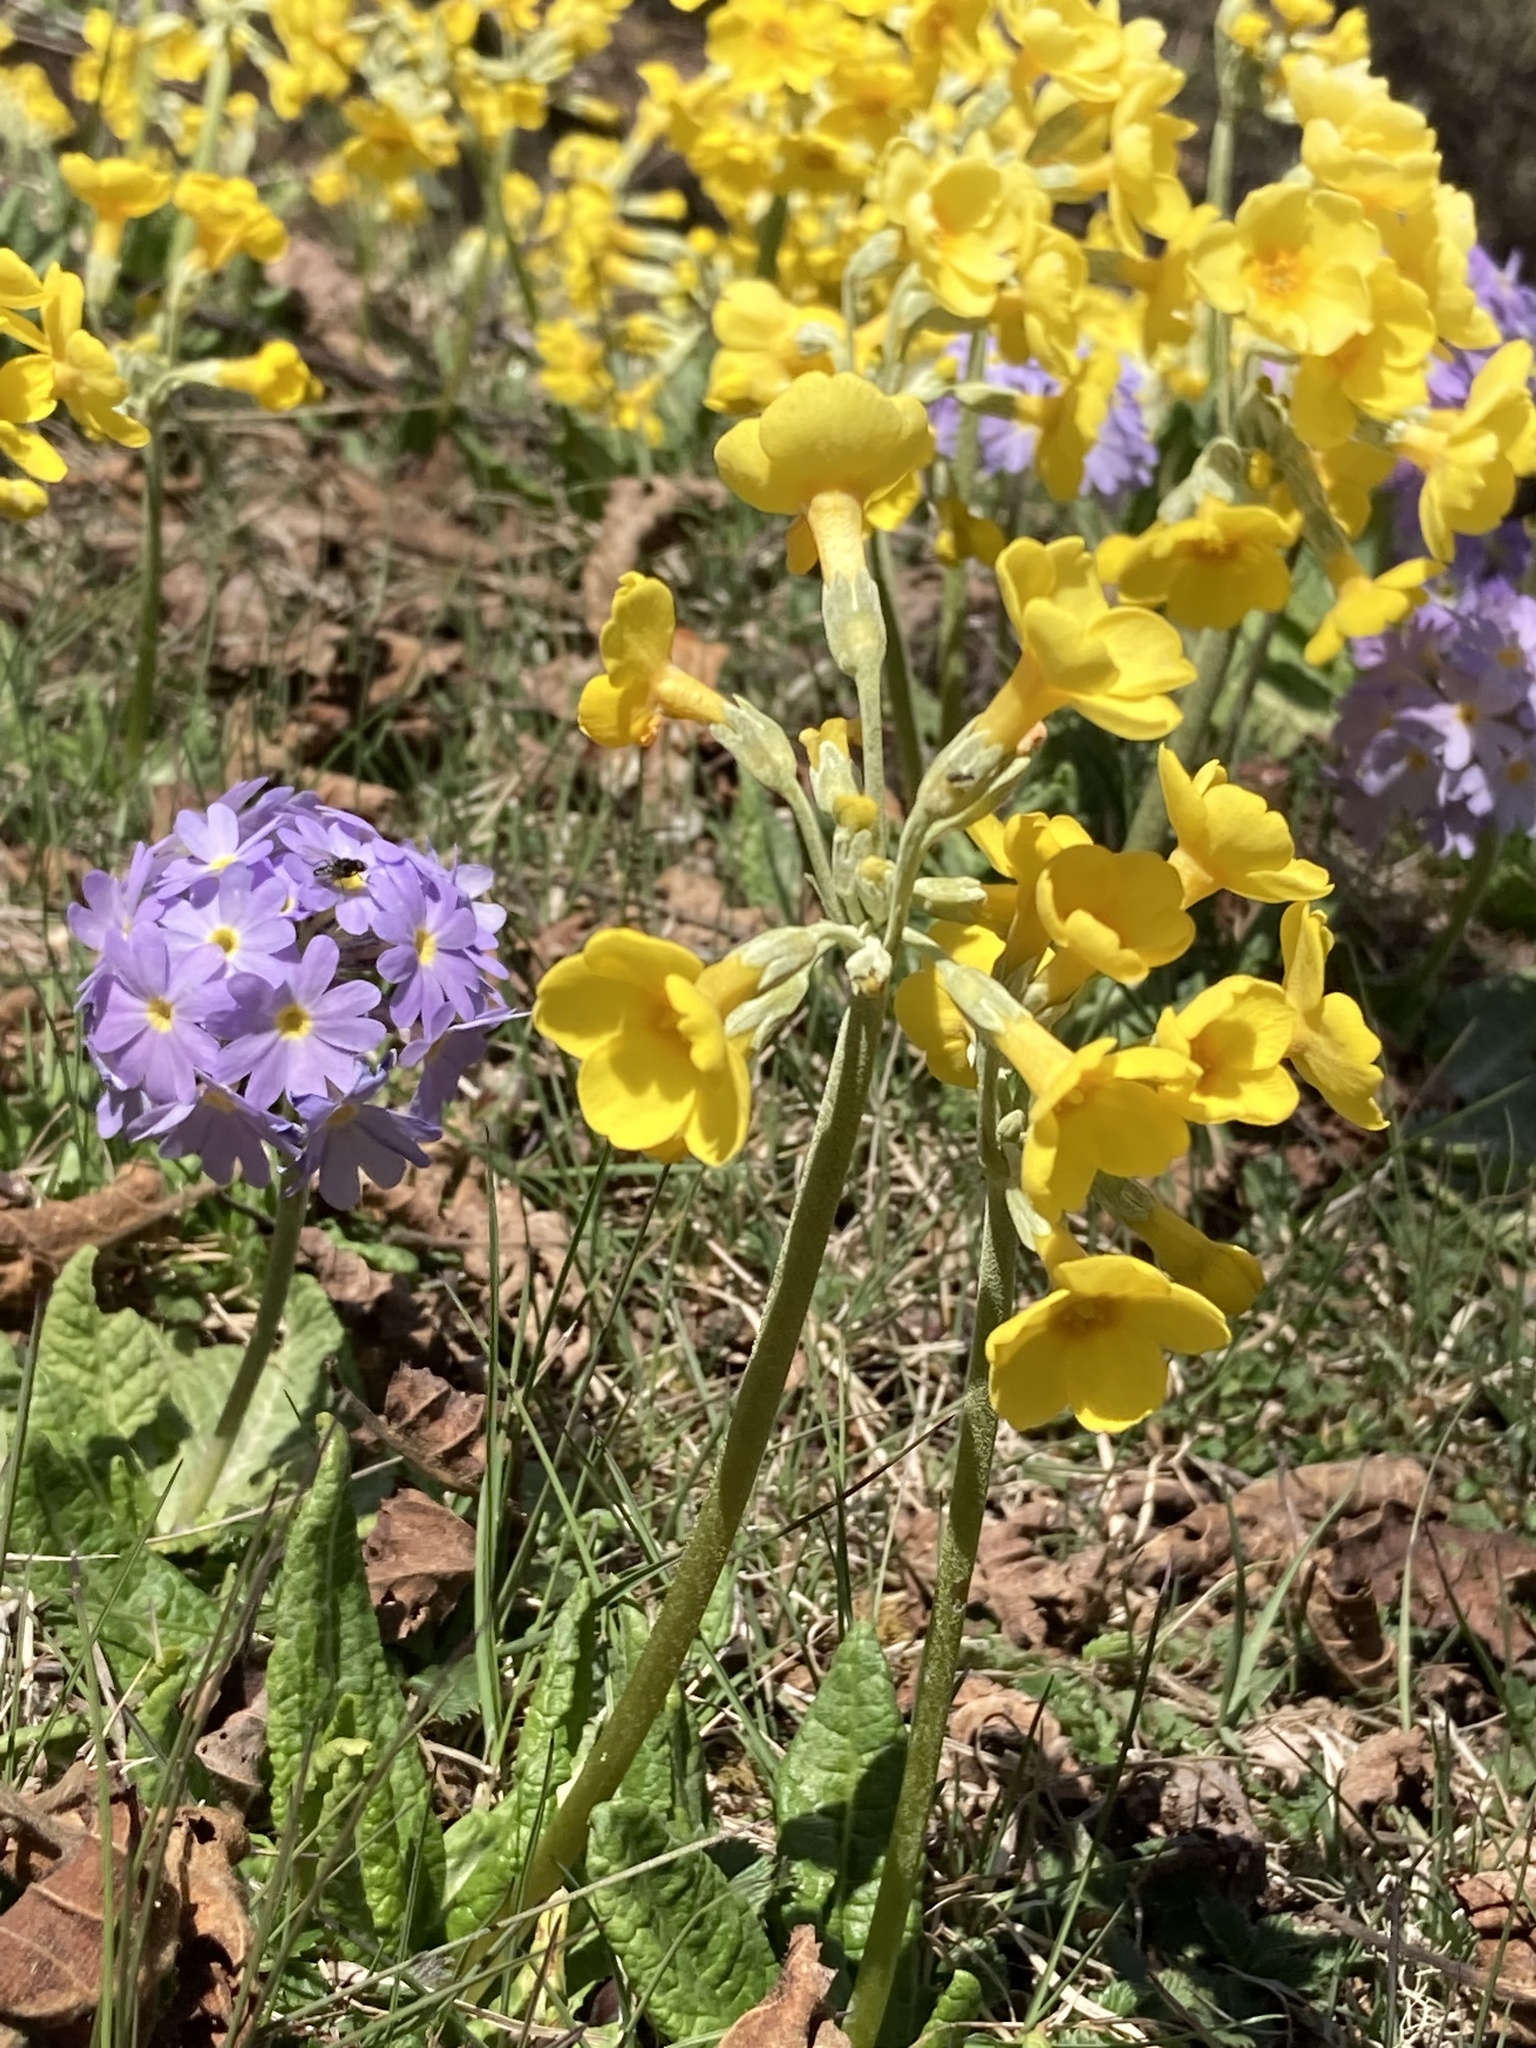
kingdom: Plantae
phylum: Tracheophyta
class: Magnoliopsida
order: Ericales
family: Primulaceae
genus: Primula
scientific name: Primula strumosa
